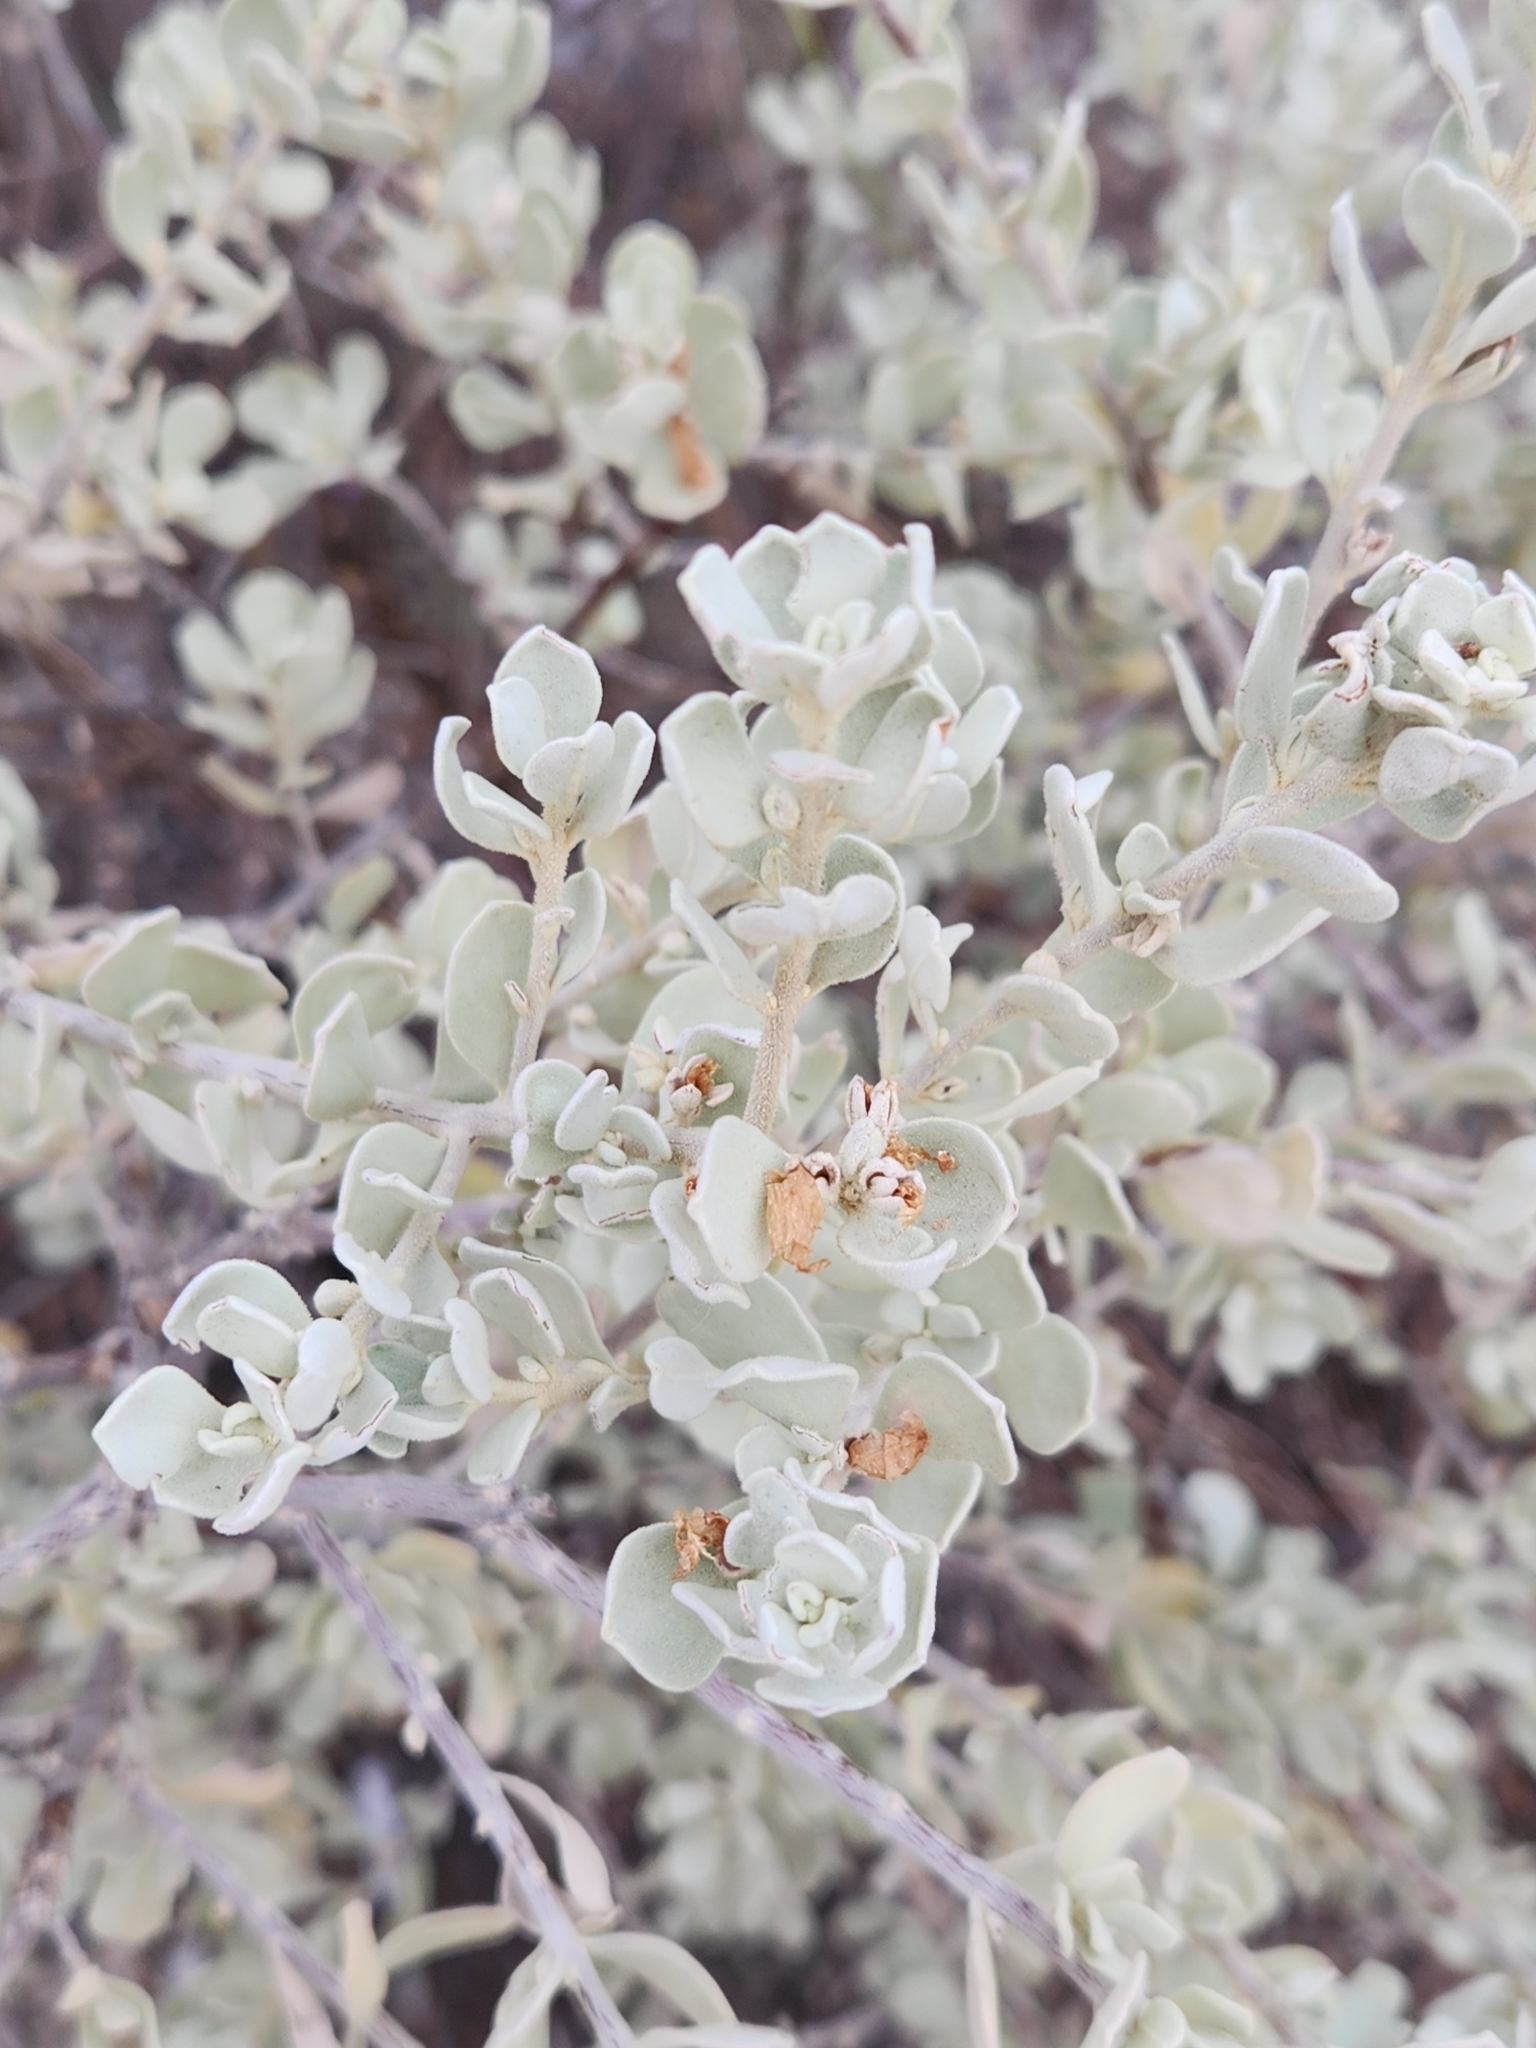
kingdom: Plantae
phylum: Tracheophyta
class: Magnoliopsida
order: Lamiales
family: Scrophulariaceae
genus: Leucophyllum
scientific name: Leucophyllum frutescens
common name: Texas silverleaf
